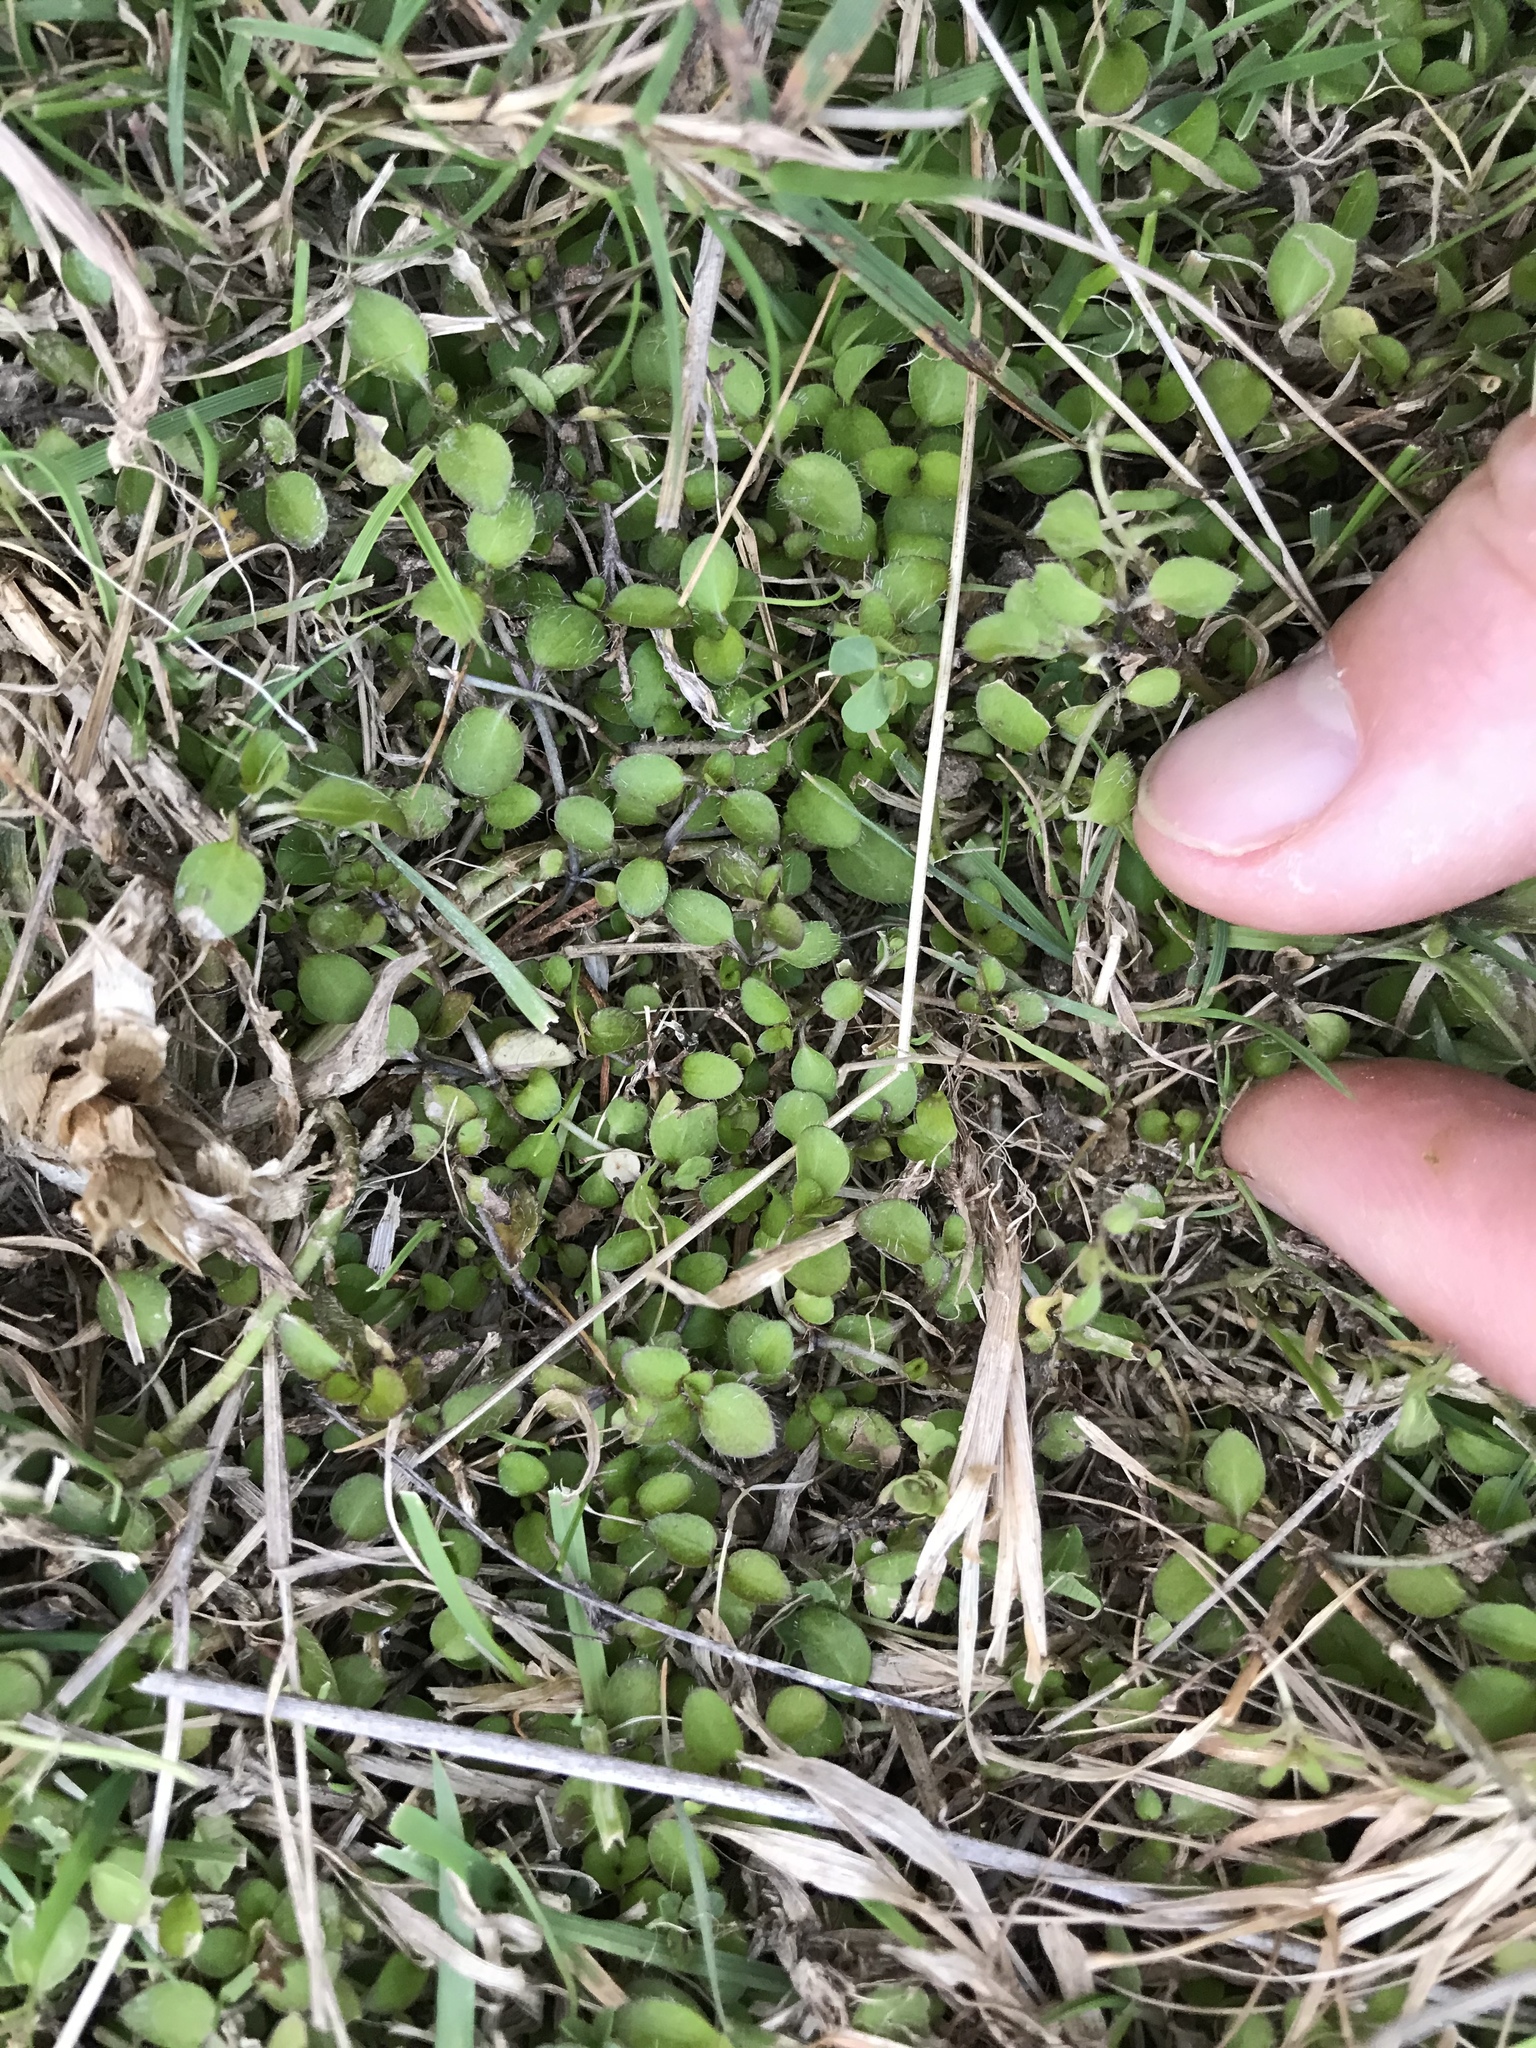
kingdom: Plantae
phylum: Tracheophyta
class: Magnoliopsida
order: Gentianales
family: Rubiaceae
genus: Leptostigma
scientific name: Leptostigma setulosum
